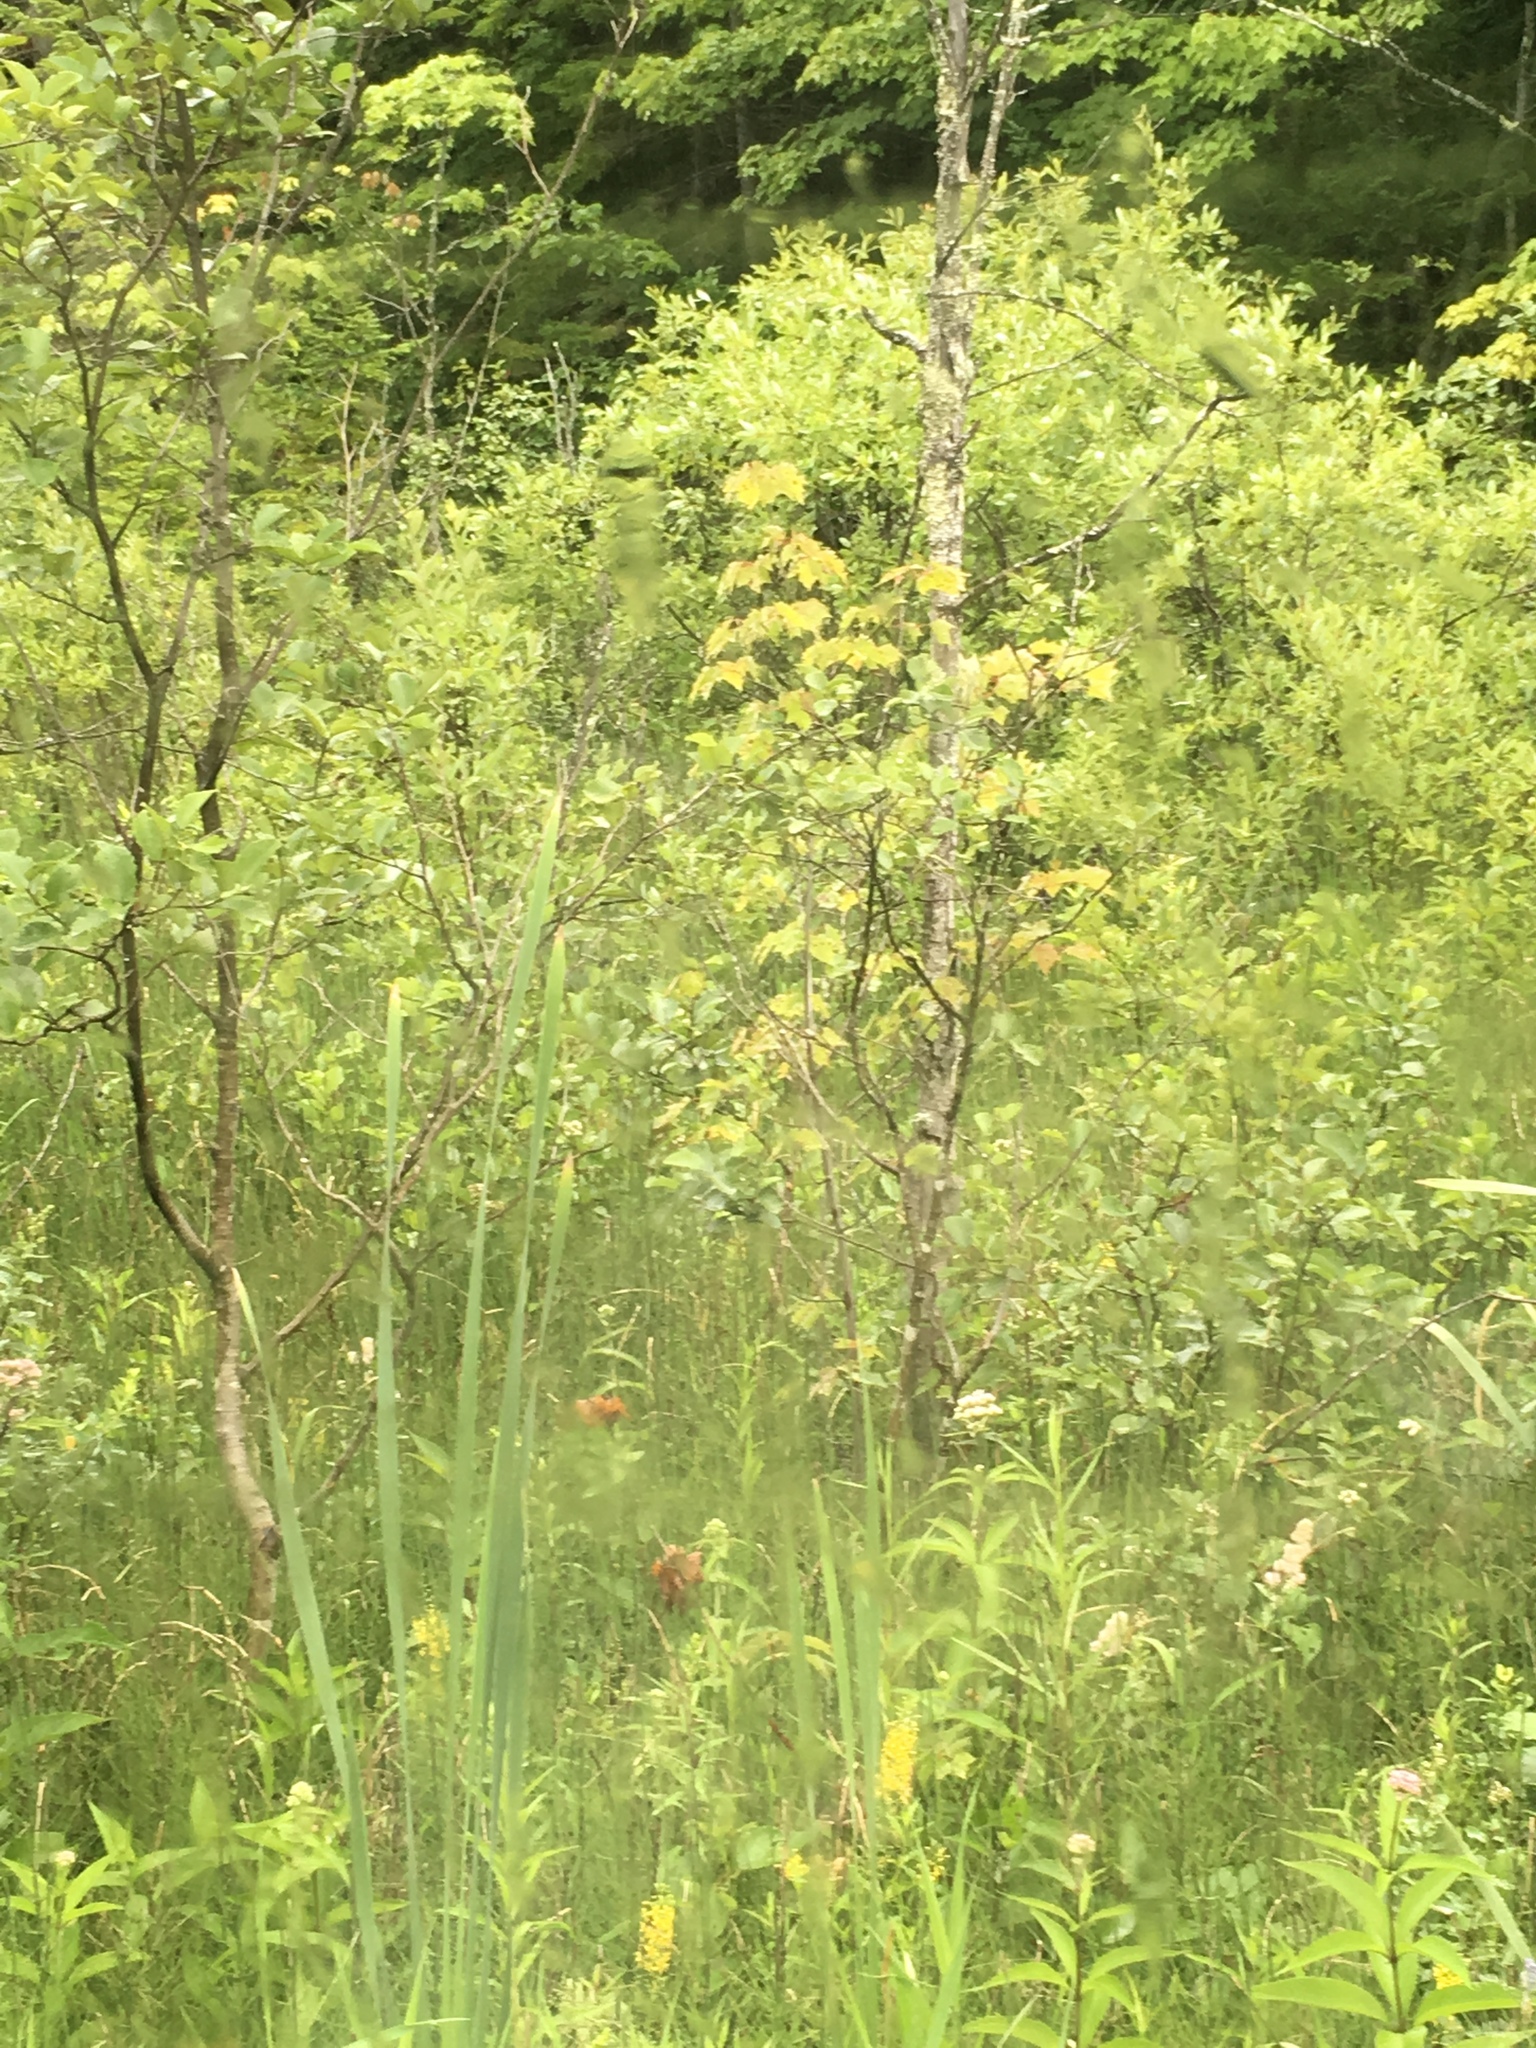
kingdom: Plantae
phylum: Tracheophyta
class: Magnoliopsida
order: Sapindales
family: Sapindaceae
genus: Acer
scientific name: Acer rubrum
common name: Red maple
